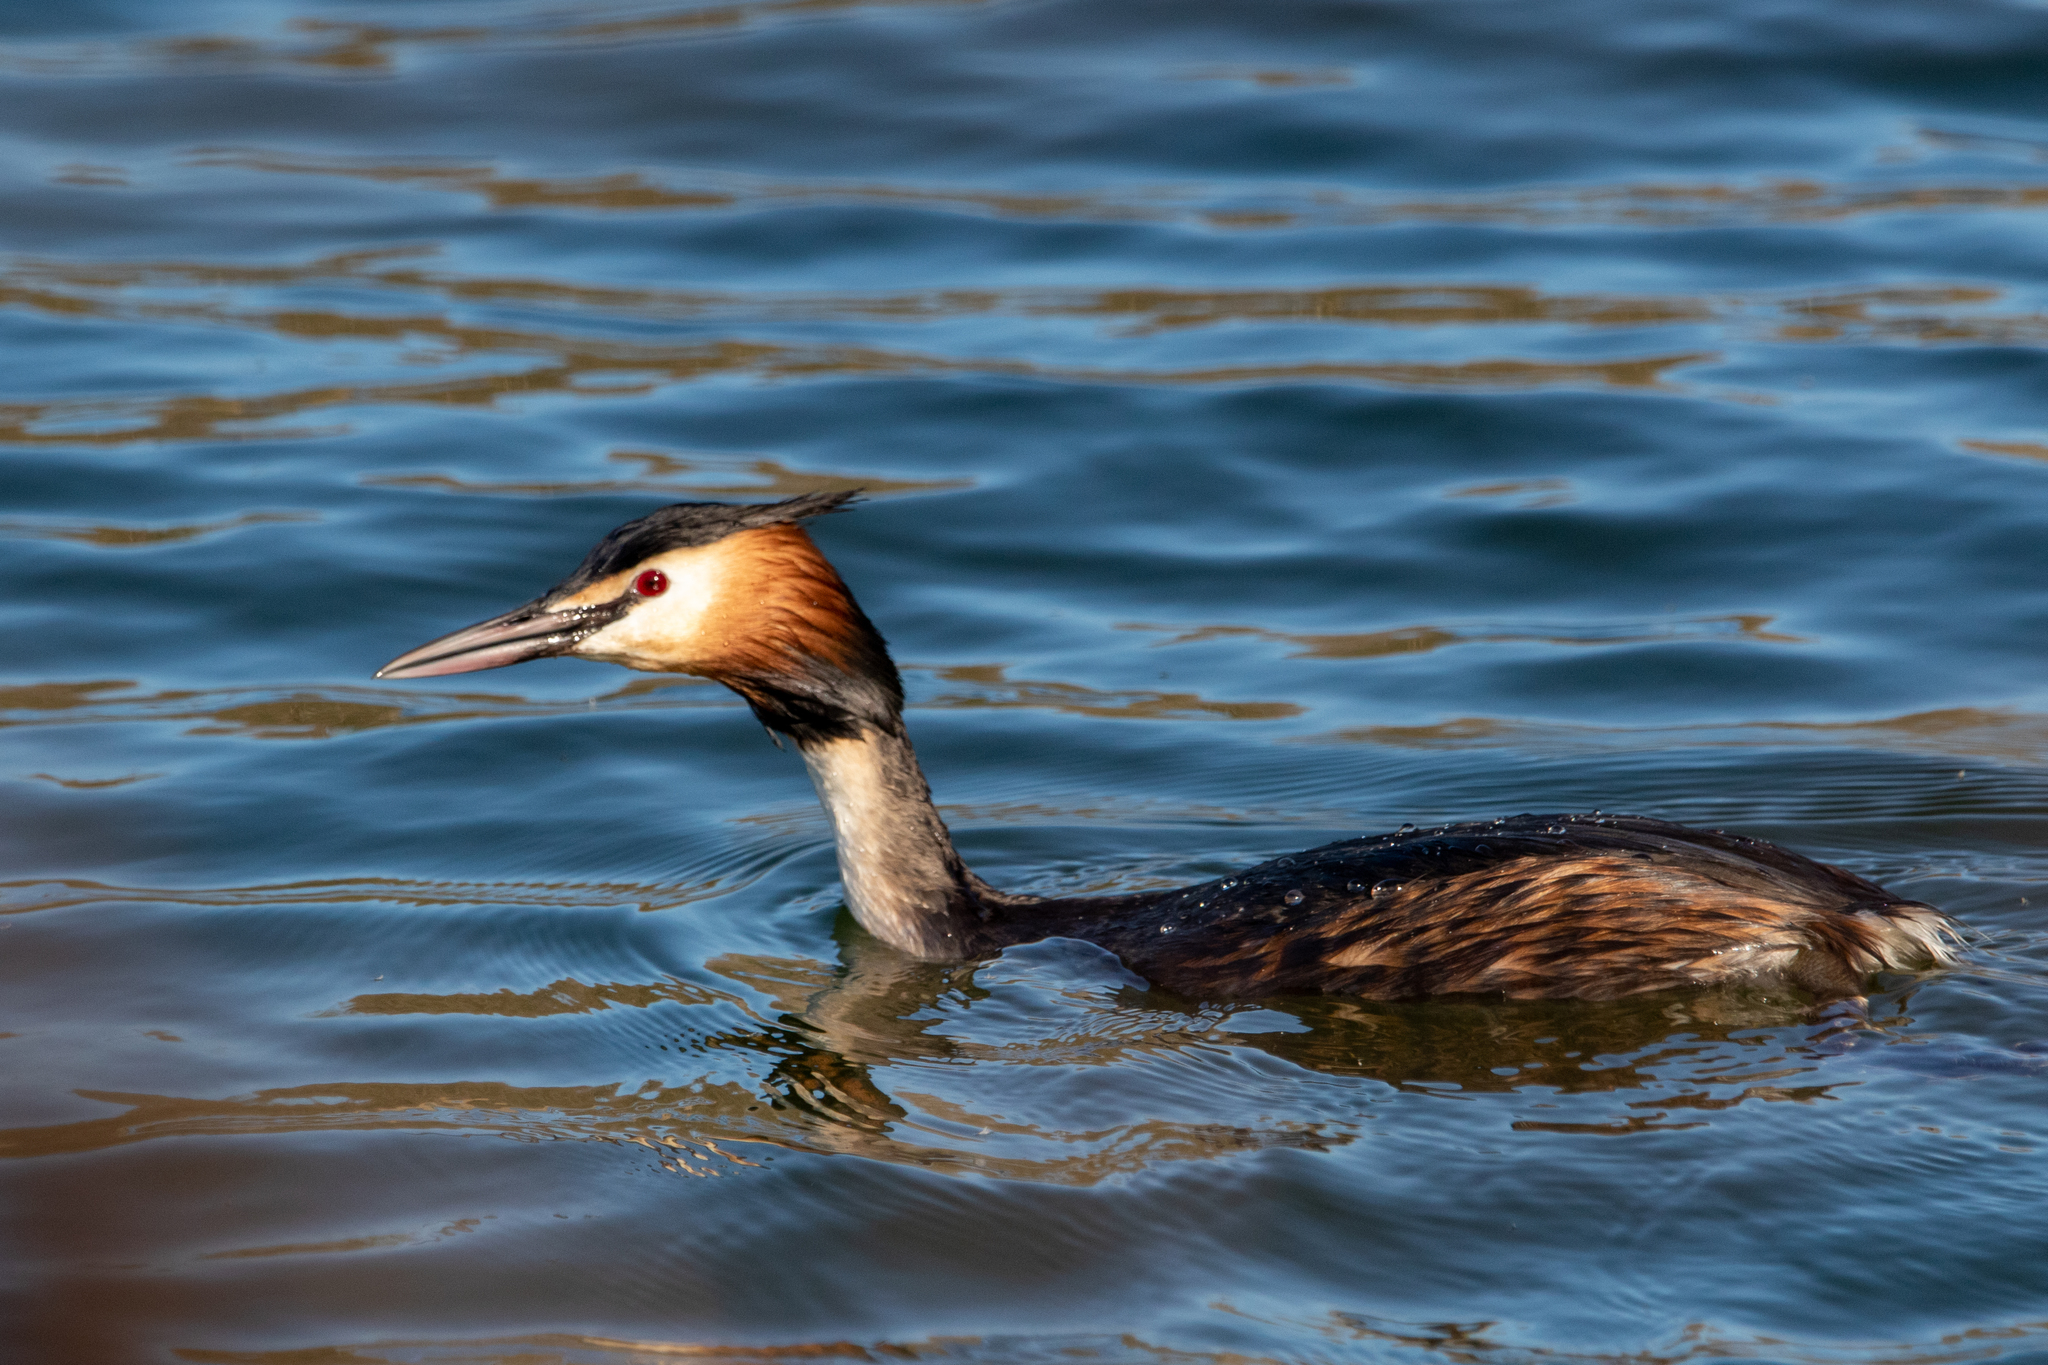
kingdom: Animalia
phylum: Chordata
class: Aves
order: Podicipediformes
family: Podicipedidae
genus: Podiceps
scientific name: Podiceps cristatus
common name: Great crested grebe
